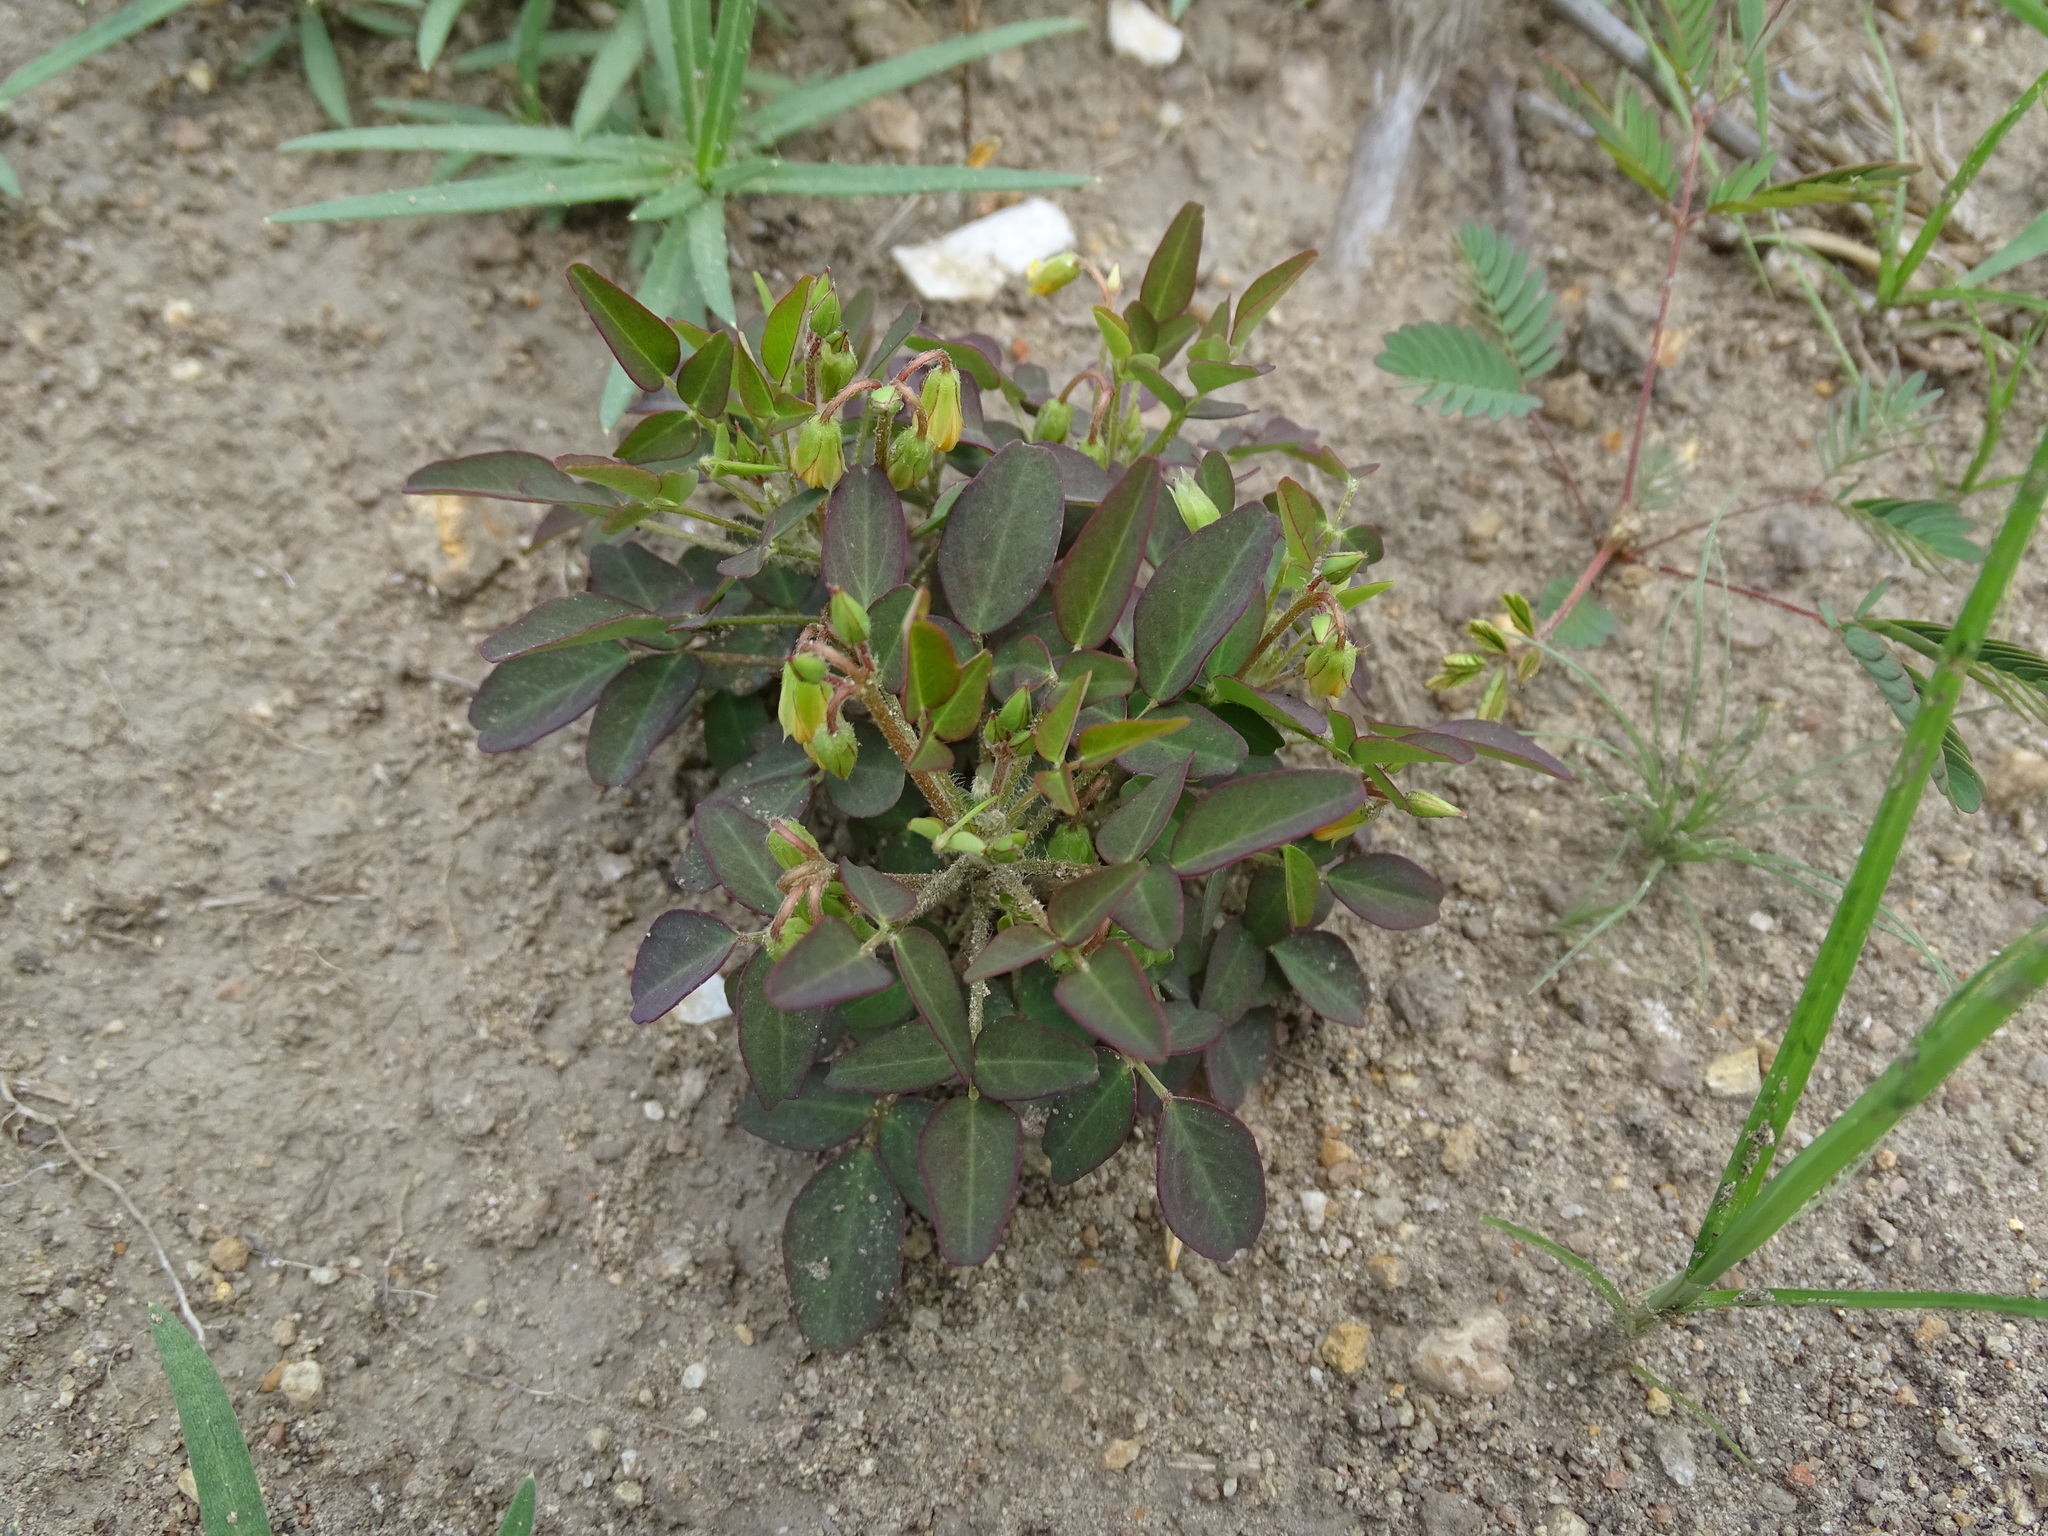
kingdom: Plantae
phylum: Tracheophyta
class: Magnoliopsida
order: Oxalidales
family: Oxalidaceae
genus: Oxalis
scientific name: Oxalis frutescens
